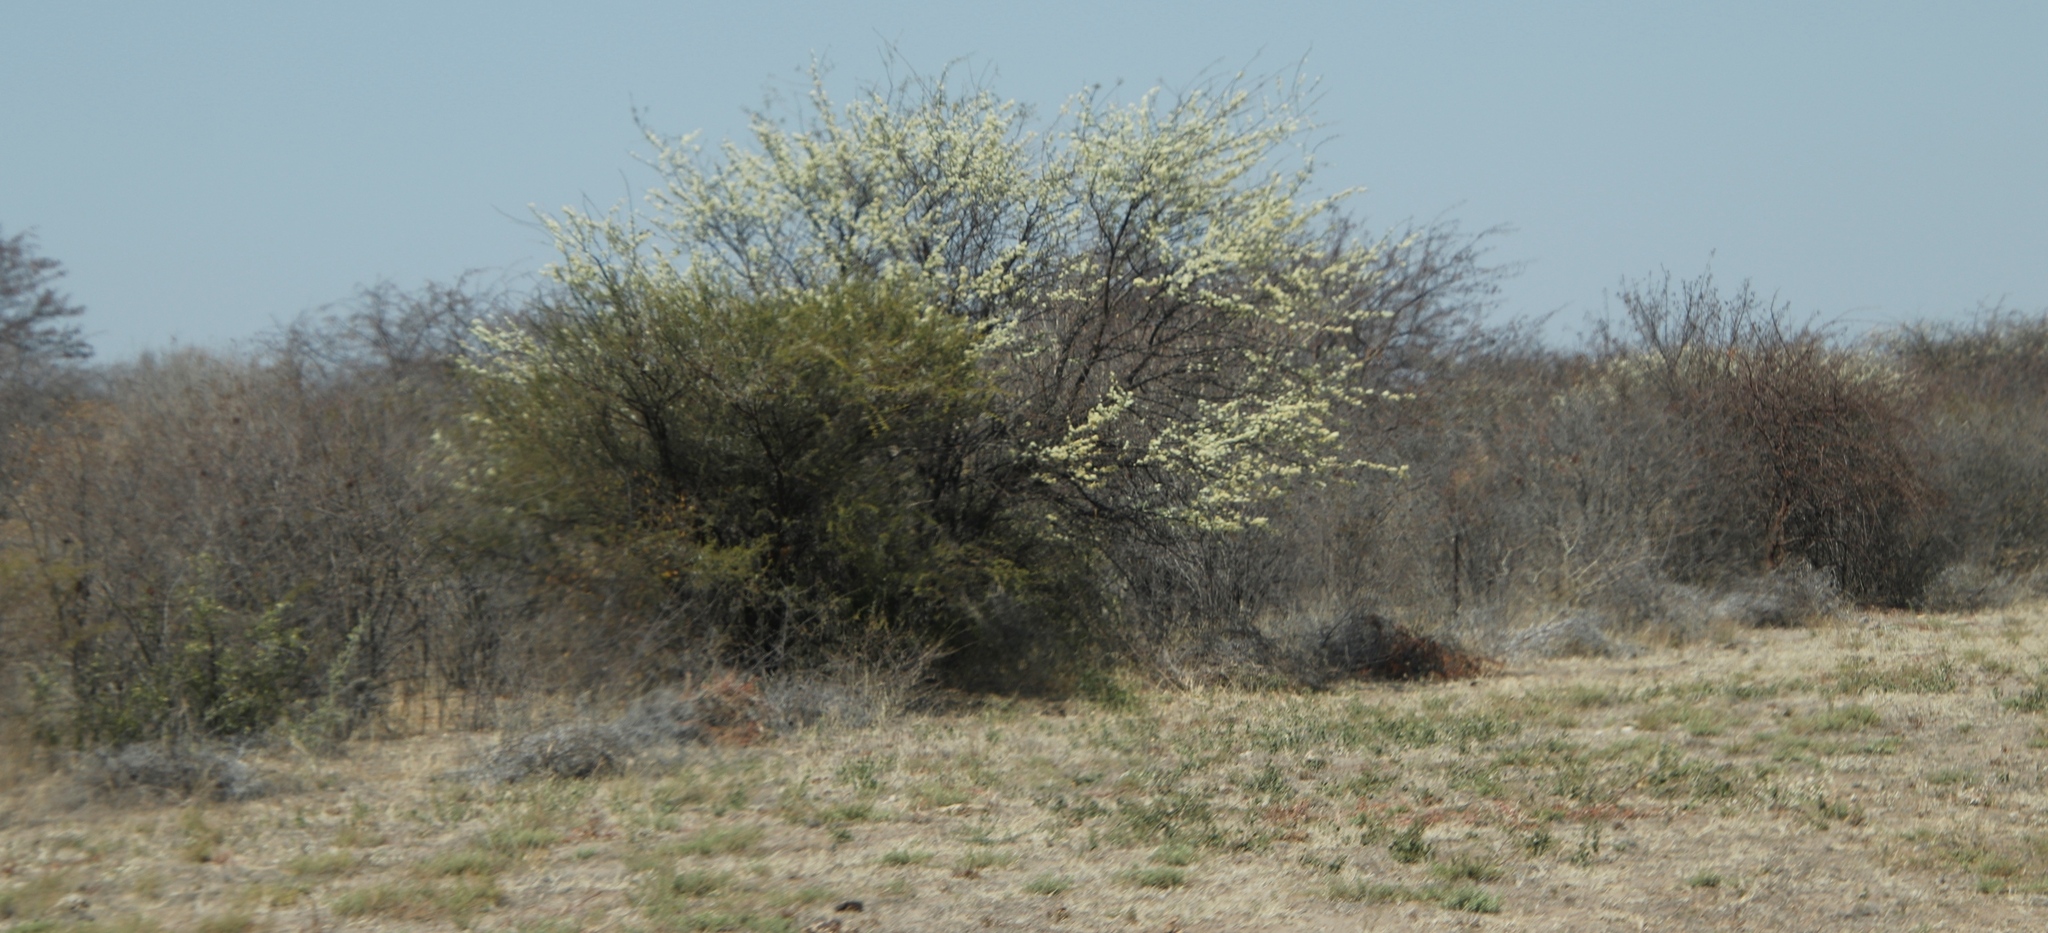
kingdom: Plantae
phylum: Tracheophyta
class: Magnoliopsida
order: Fabales
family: Fabaceae
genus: Senegalia
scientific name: Senegalia mellifera
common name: Hookthorn
